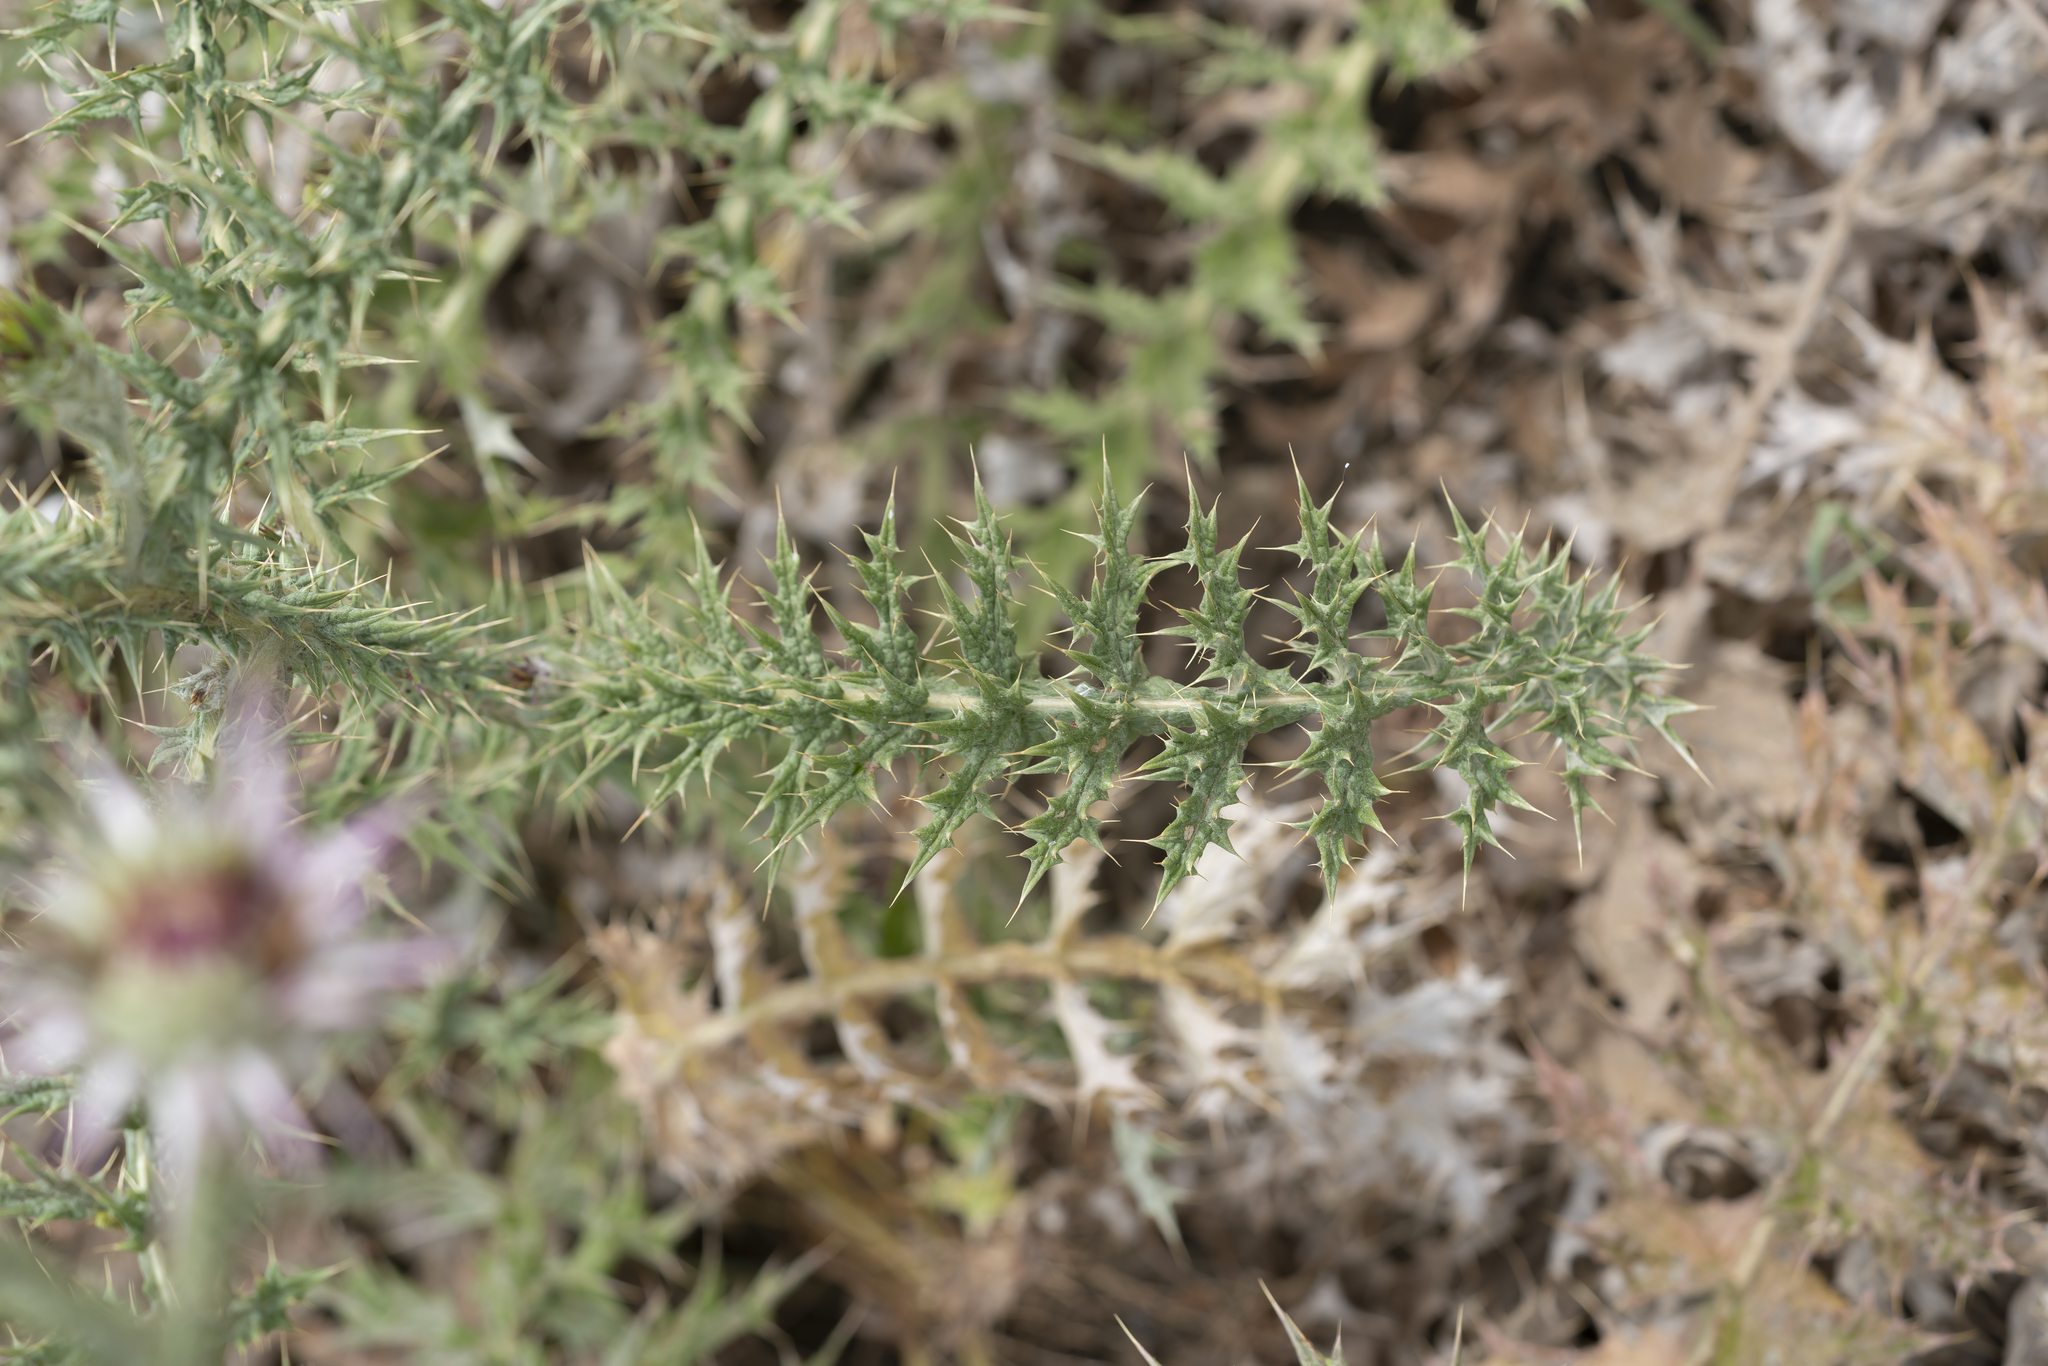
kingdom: Plantae
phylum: Tracheophyta
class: Magnoliopsida
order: Asterales
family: Asteraceae
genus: Onopordum
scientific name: Onopordum boissierianum
